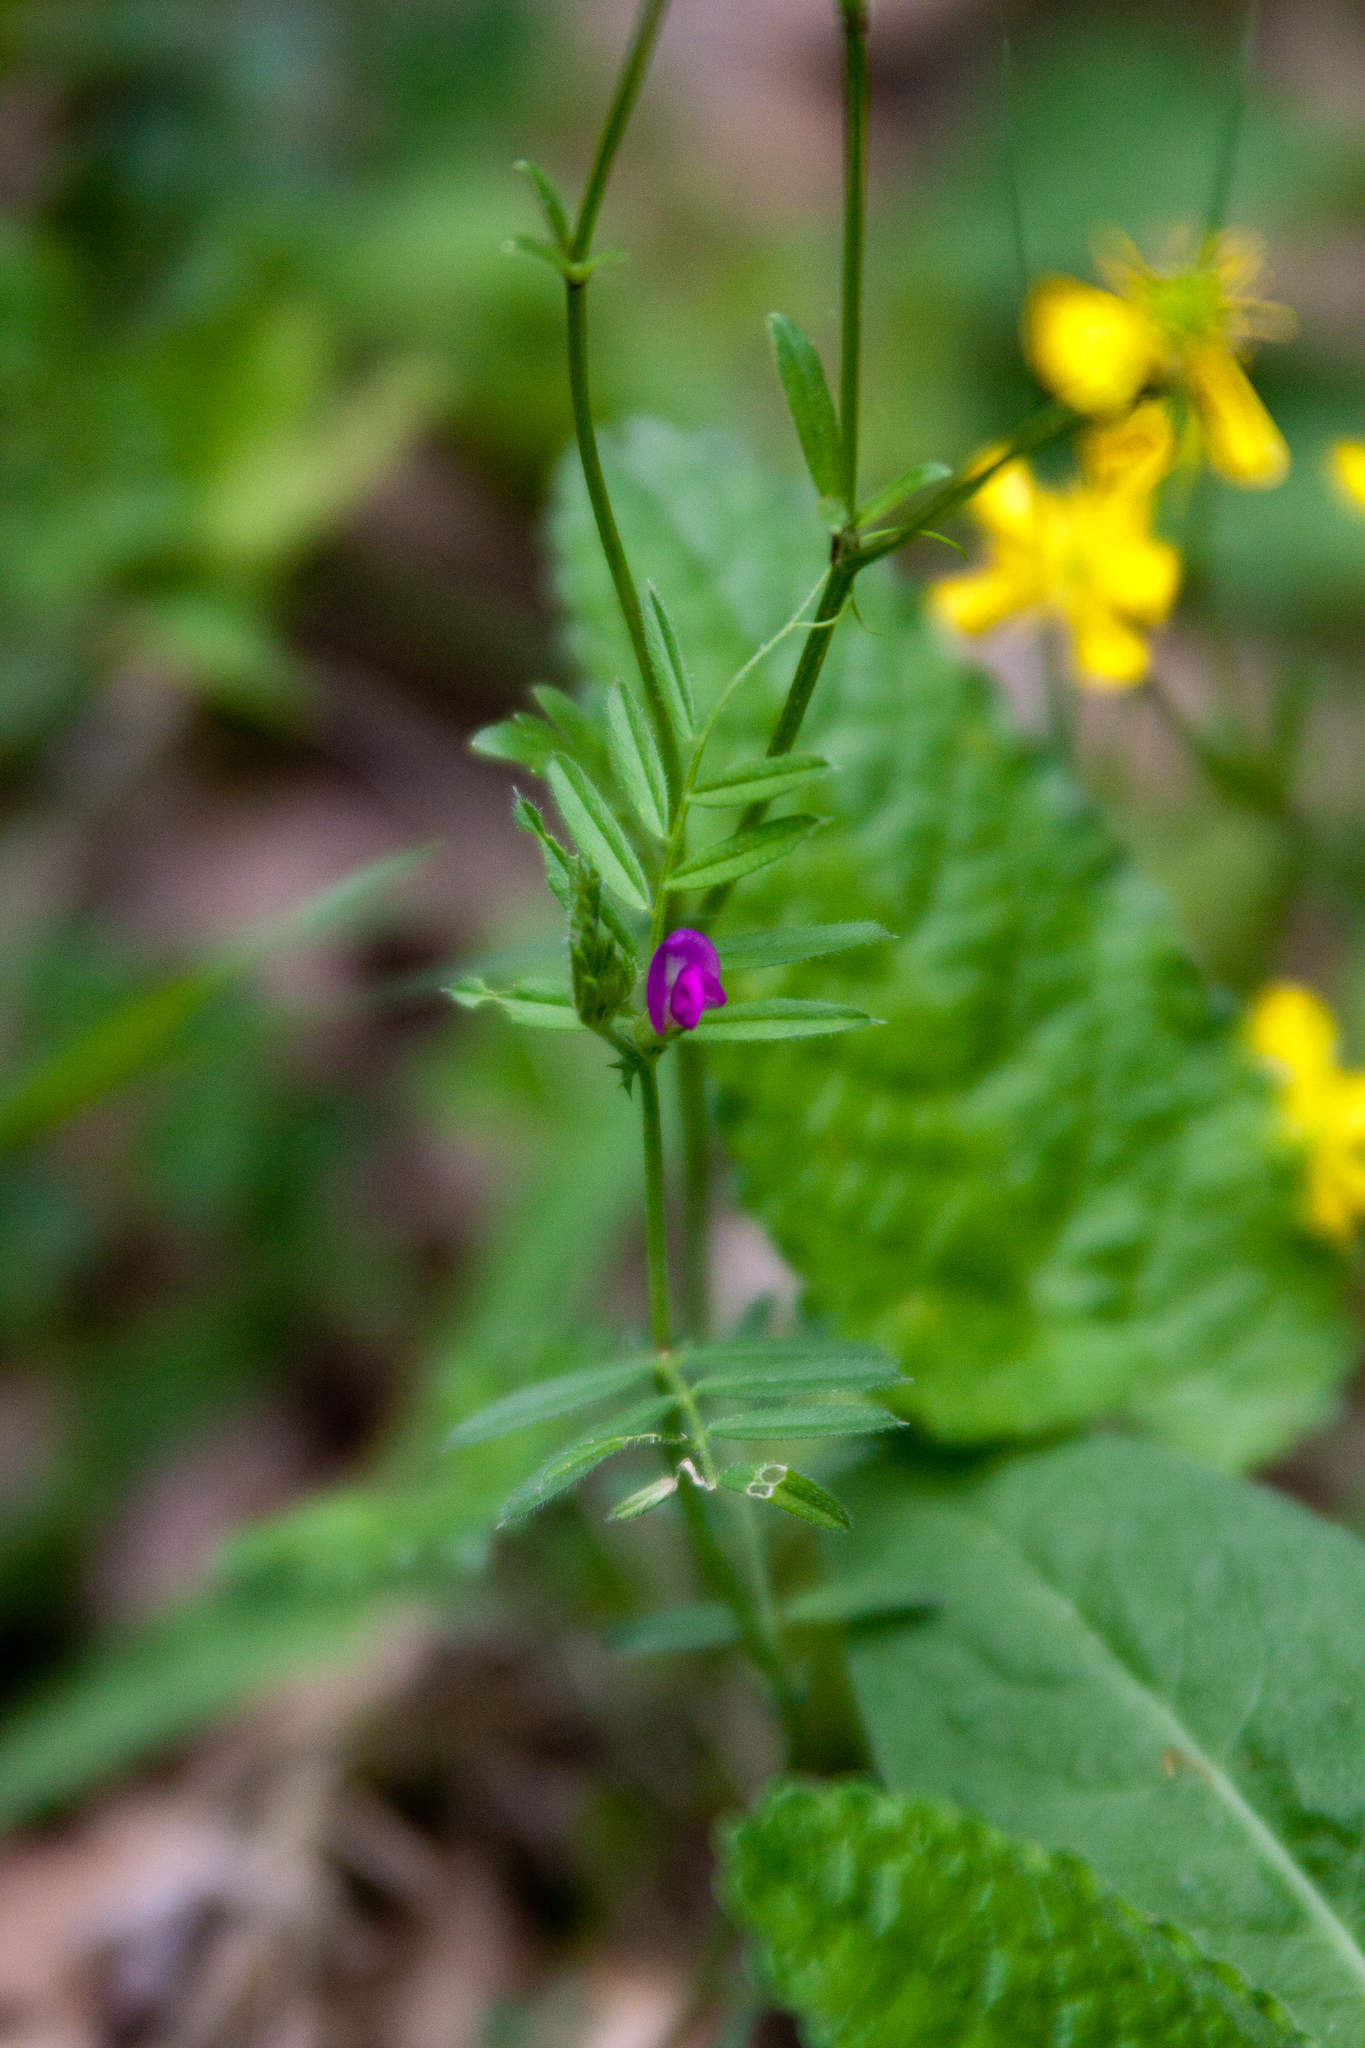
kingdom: Plantae
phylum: Tracheophyta
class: Magnoliopsida
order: Fabales
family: Fabaceae
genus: Vicia
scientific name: Vicia sativa
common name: Garden vetch
